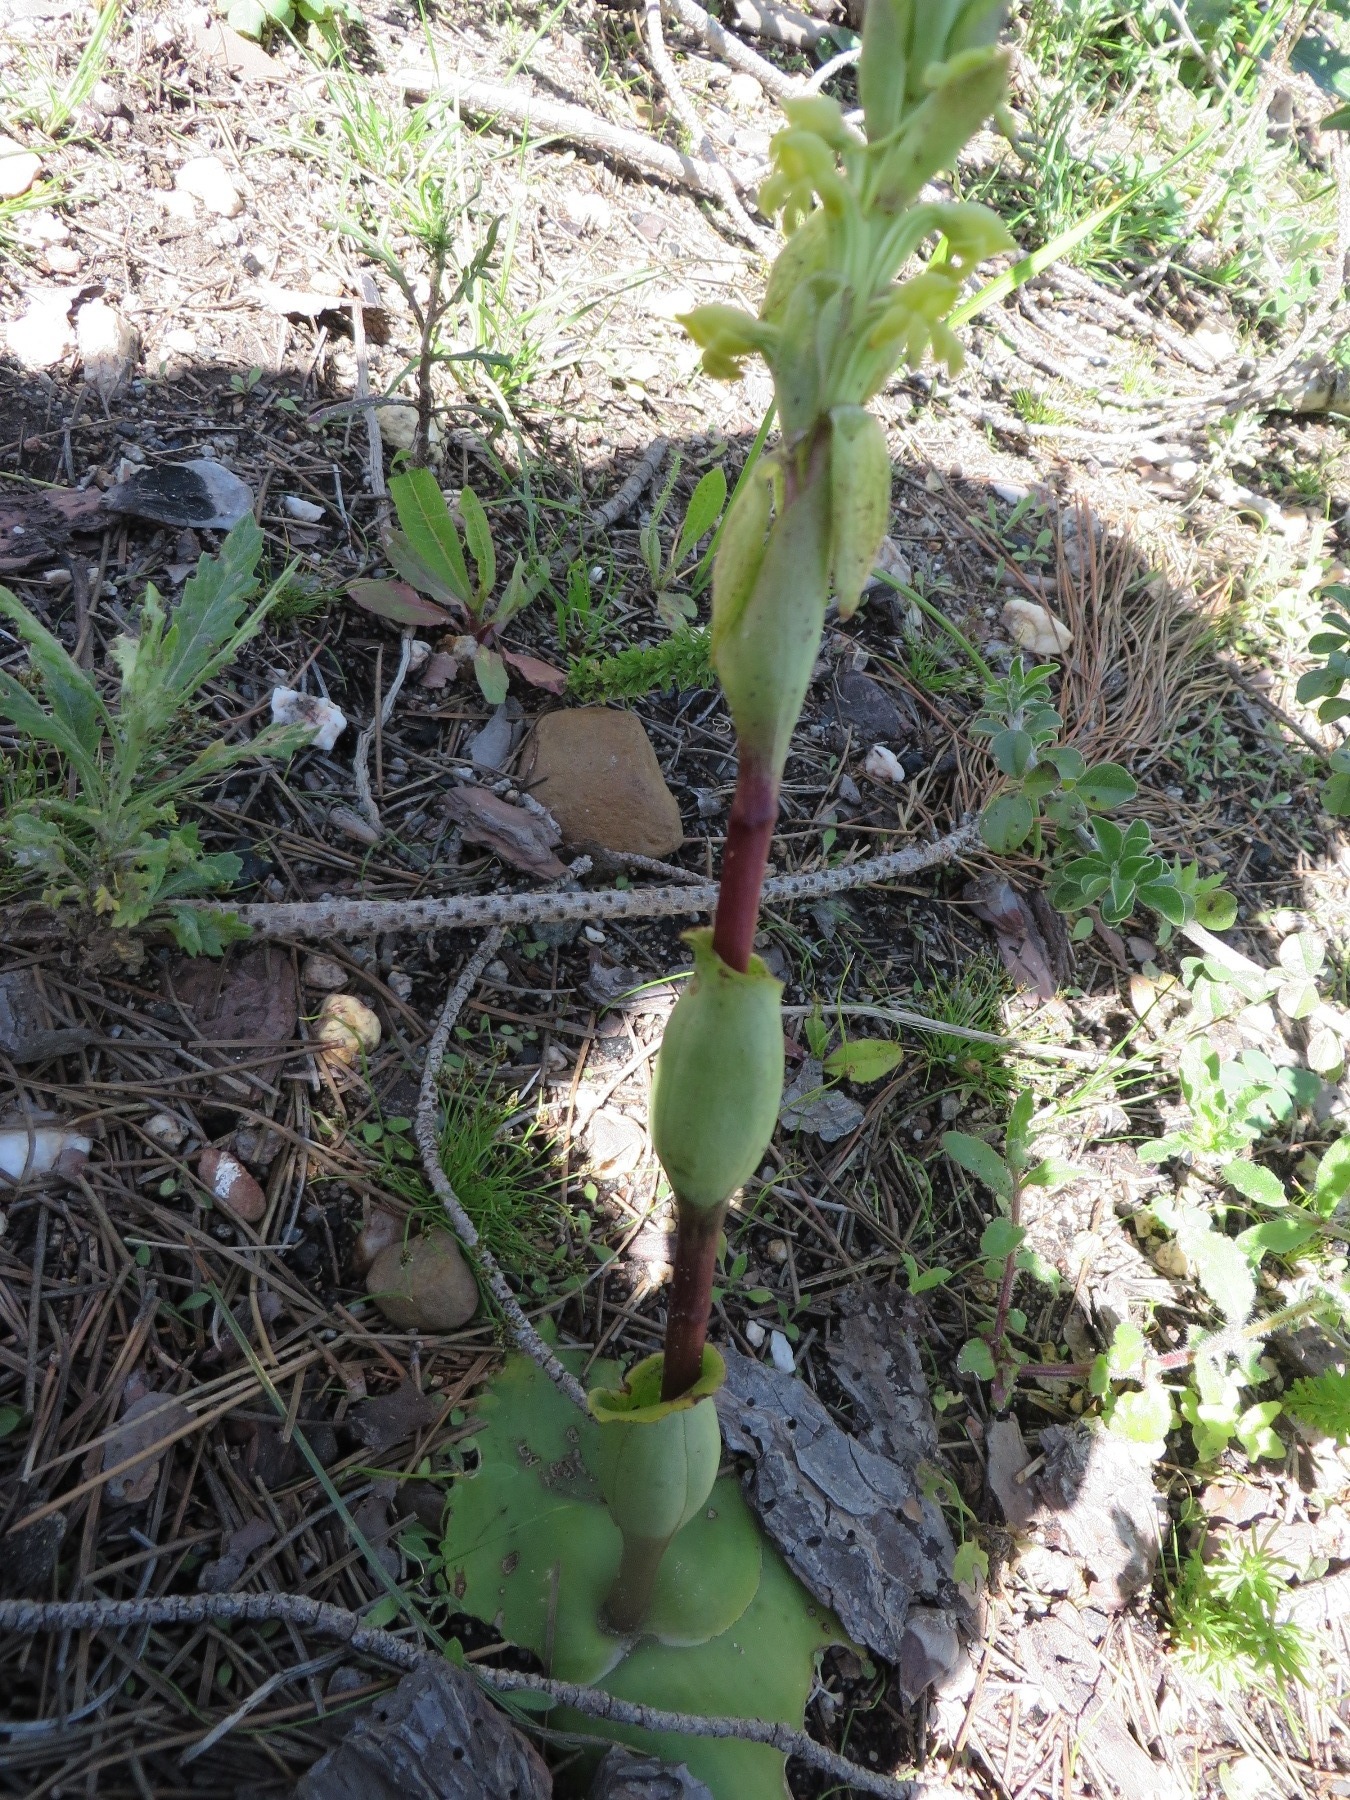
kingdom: Plantae
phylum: Tracheophyta
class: Liliopsida
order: Asparagales
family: Orchidaceae
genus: Satyrium
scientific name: Satyrium bicorne
